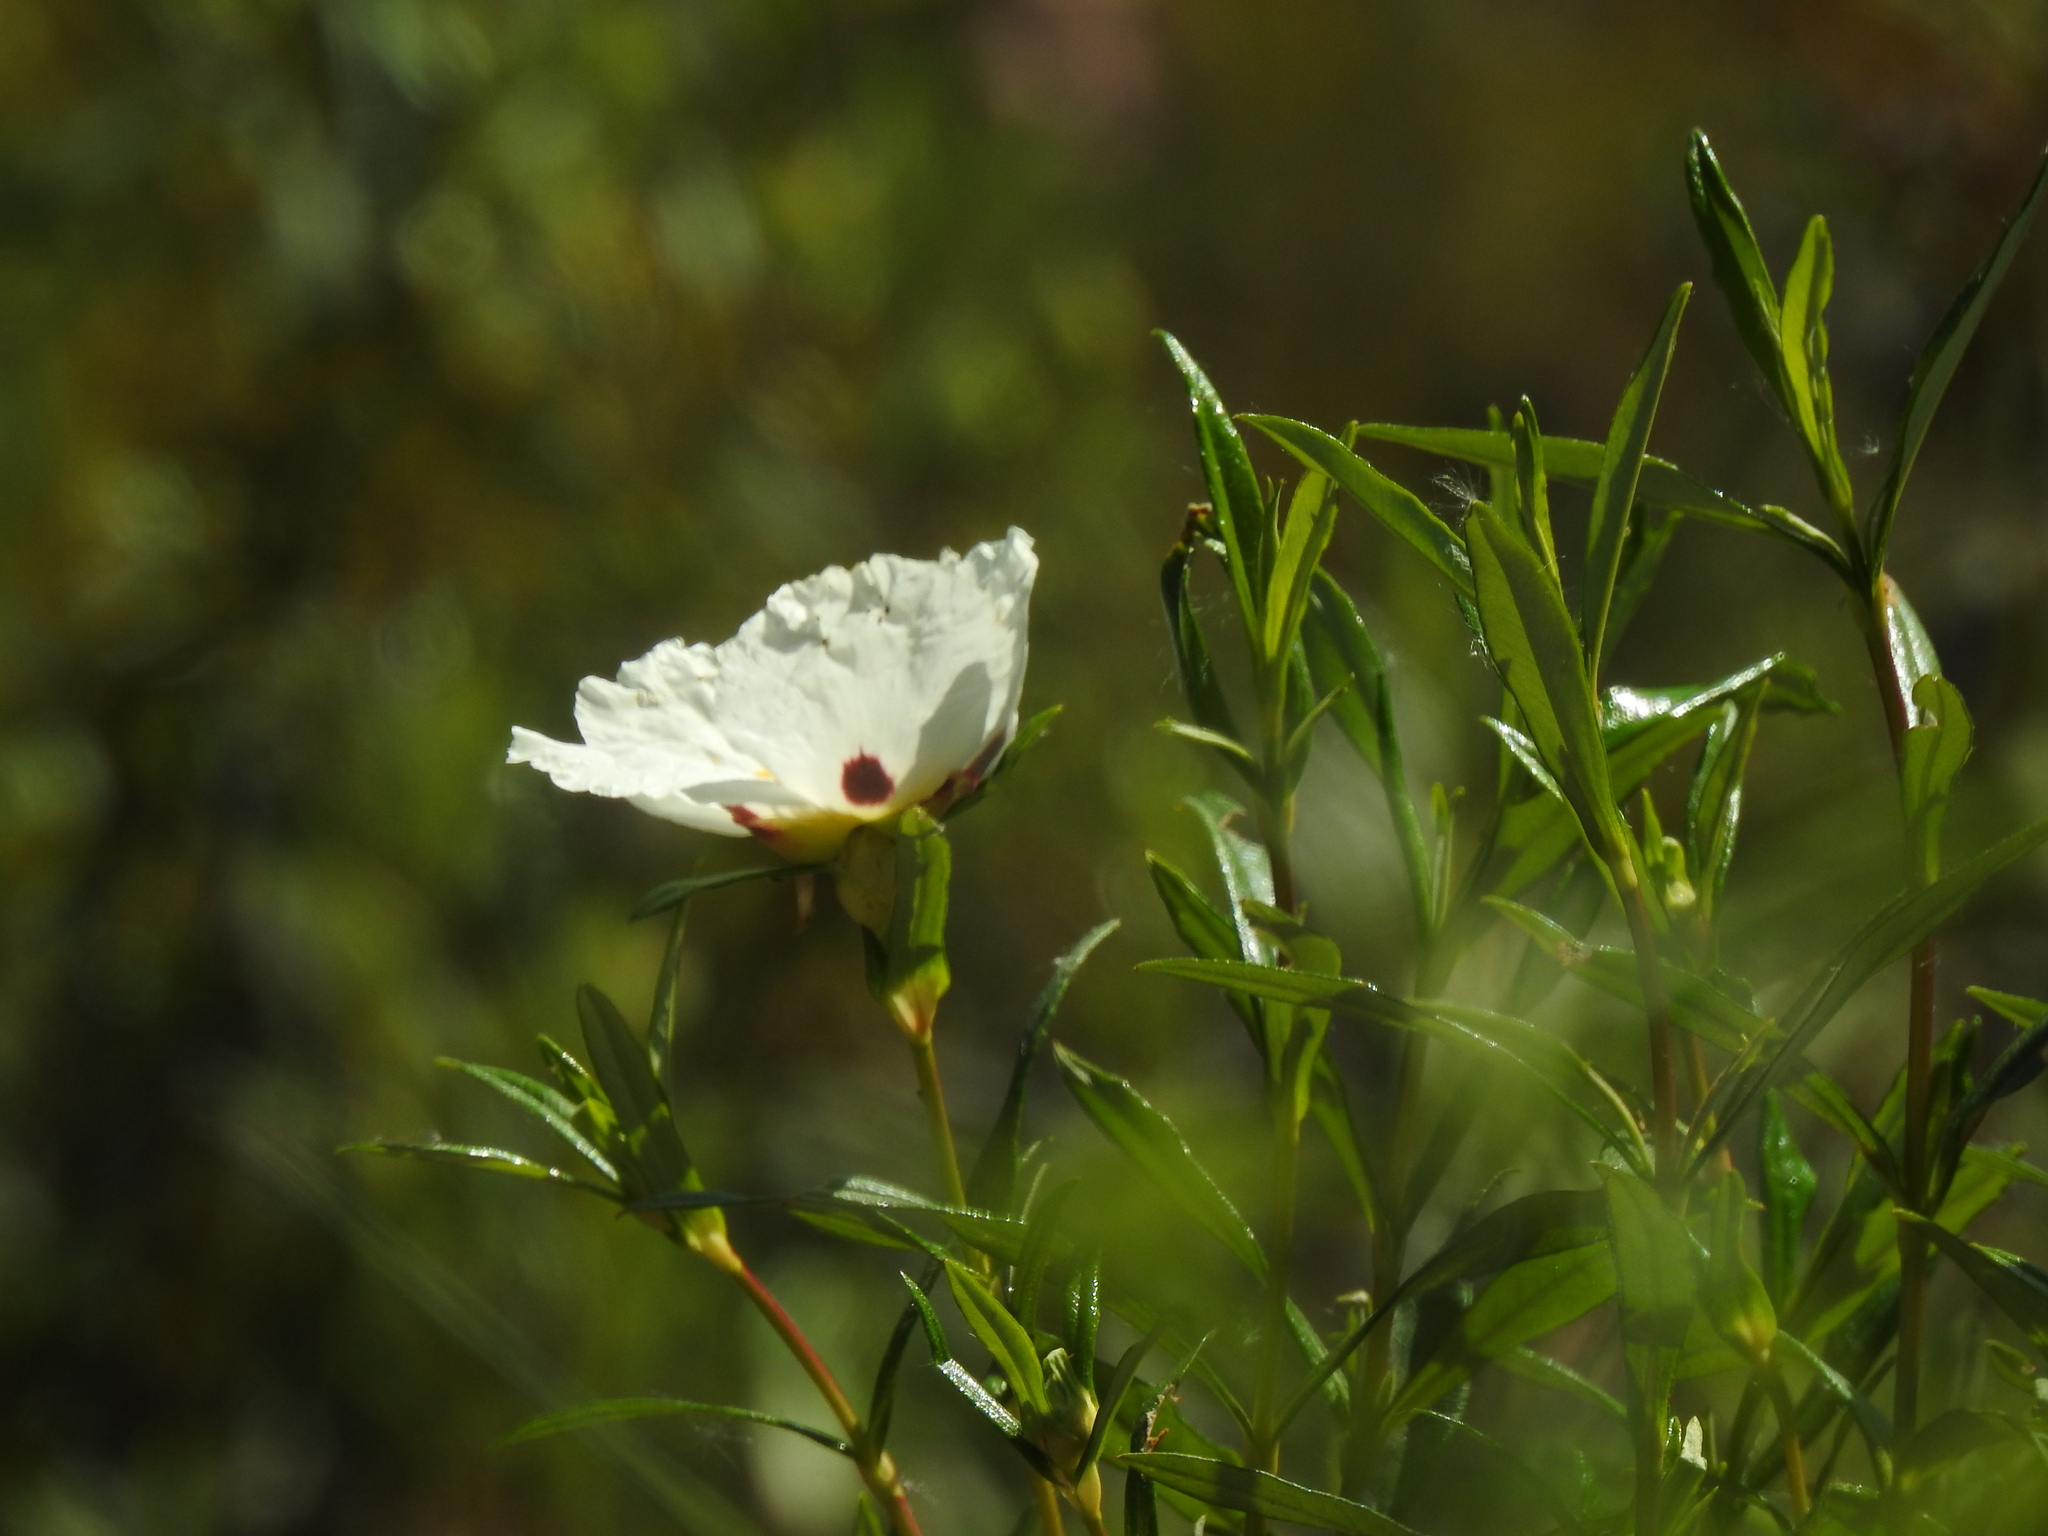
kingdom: Plantae
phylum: Tracheophyta
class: Magnoliopsida
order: Malvales
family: Cistaceae
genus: Cistus
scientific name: Cistus ladanifer
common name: Common gum cistus
